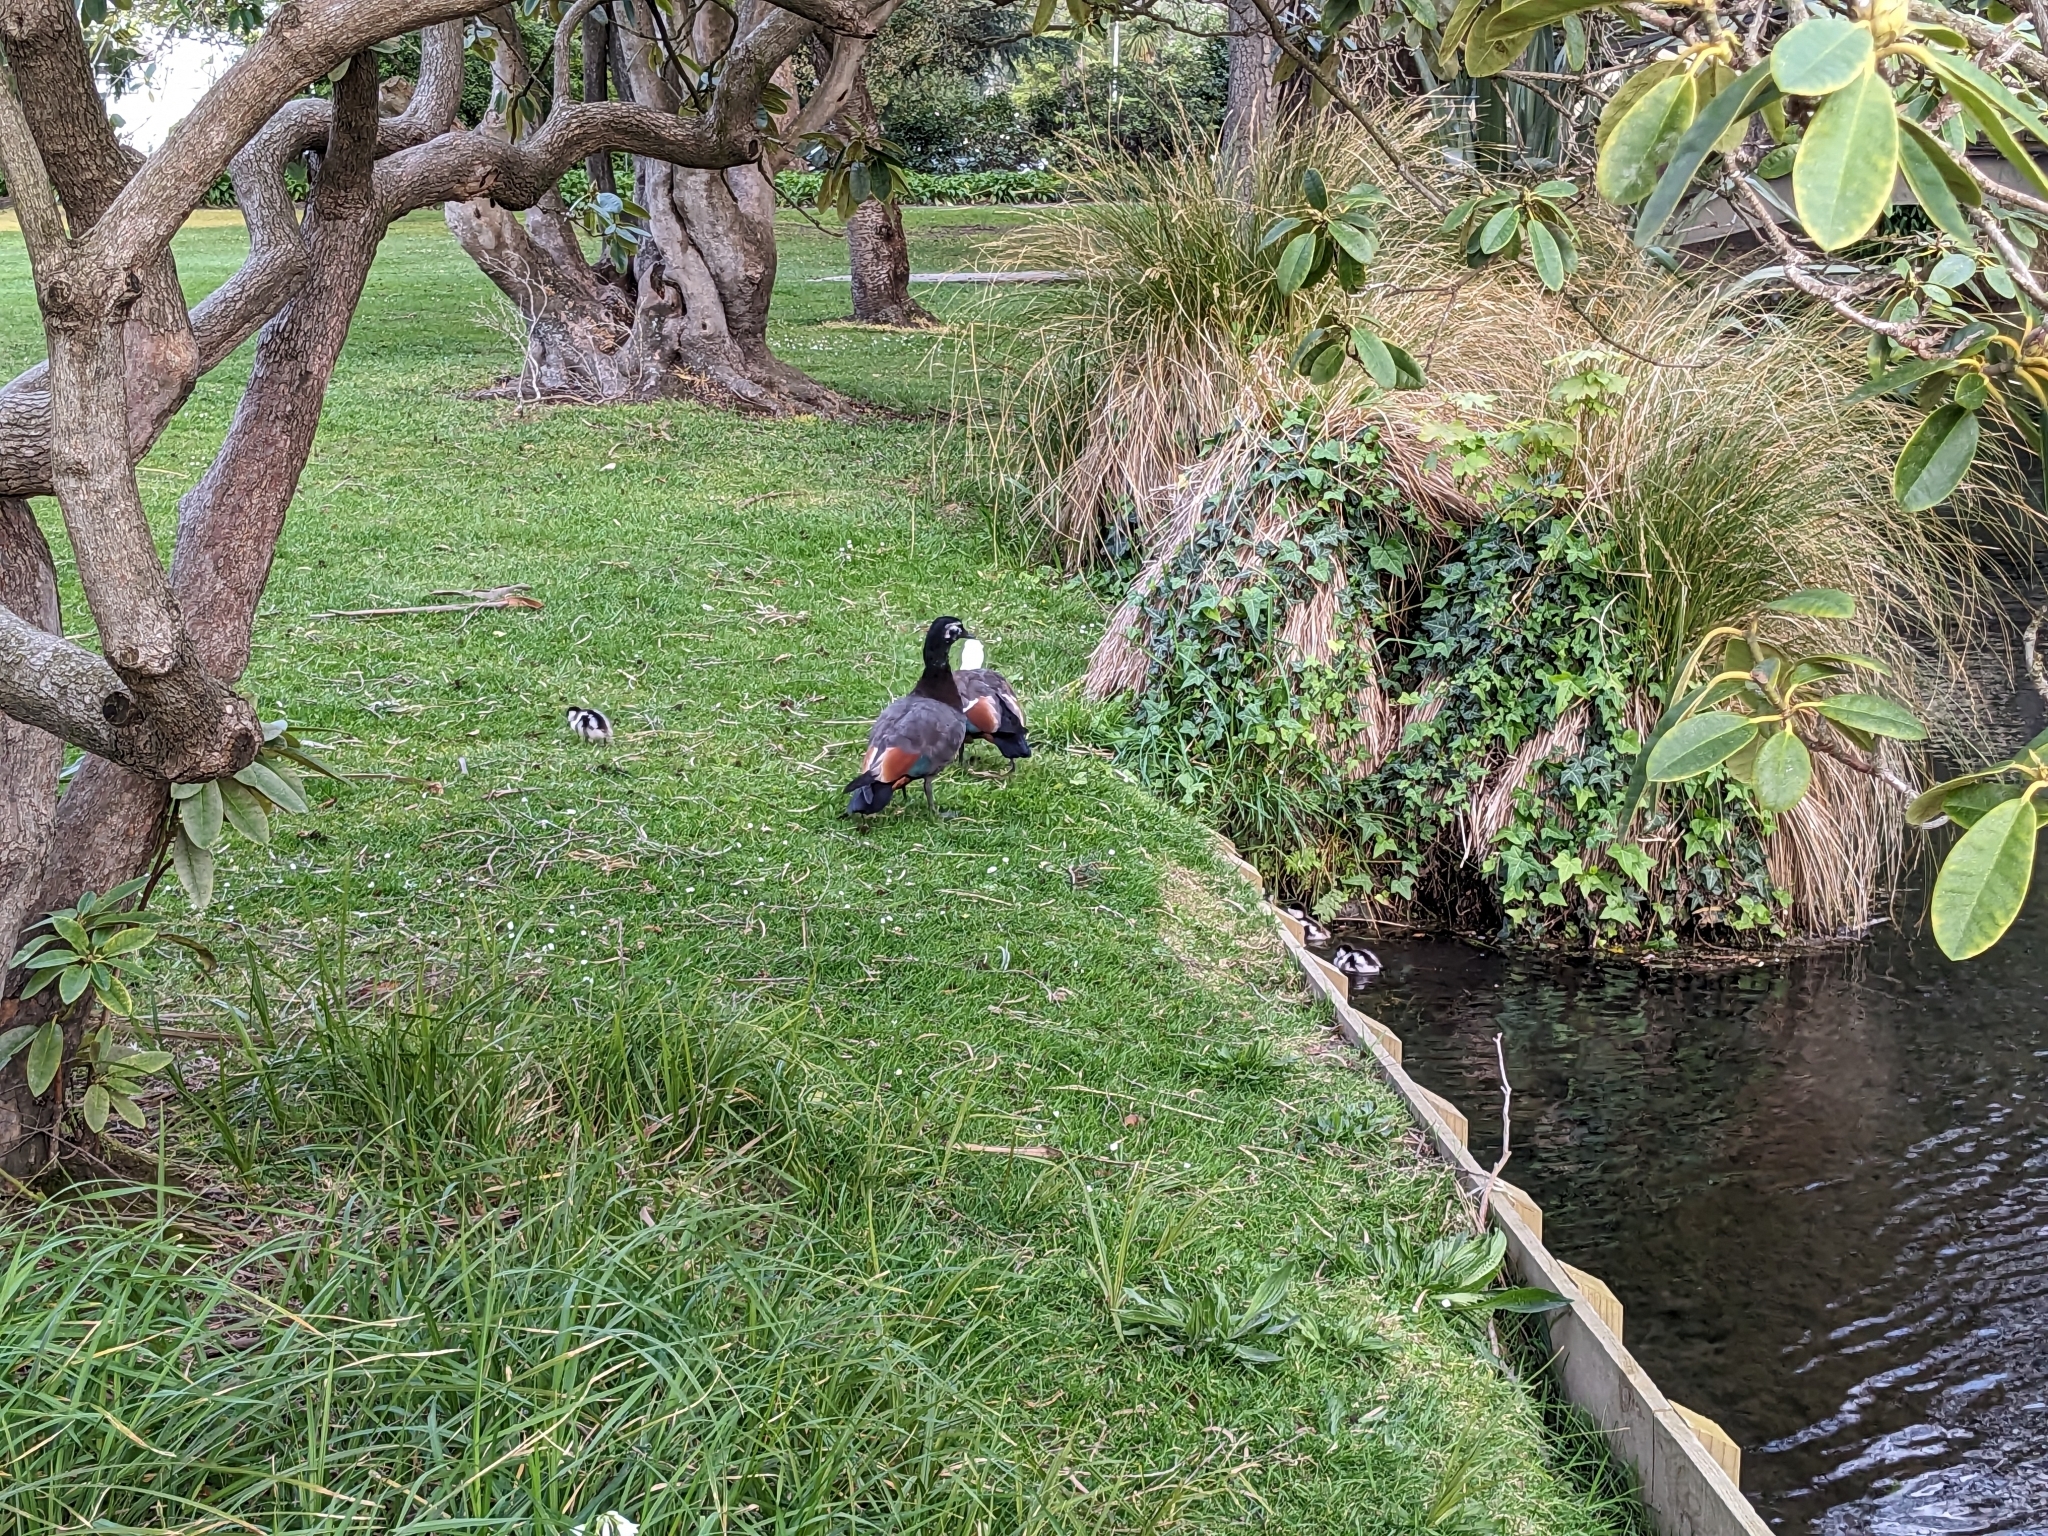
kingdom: Animalia
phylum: Chordata
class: Aves
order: Anseriformes
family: Anatidae
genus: Tadorna
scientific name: Tadorna variegata
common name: Paradise shelduck
